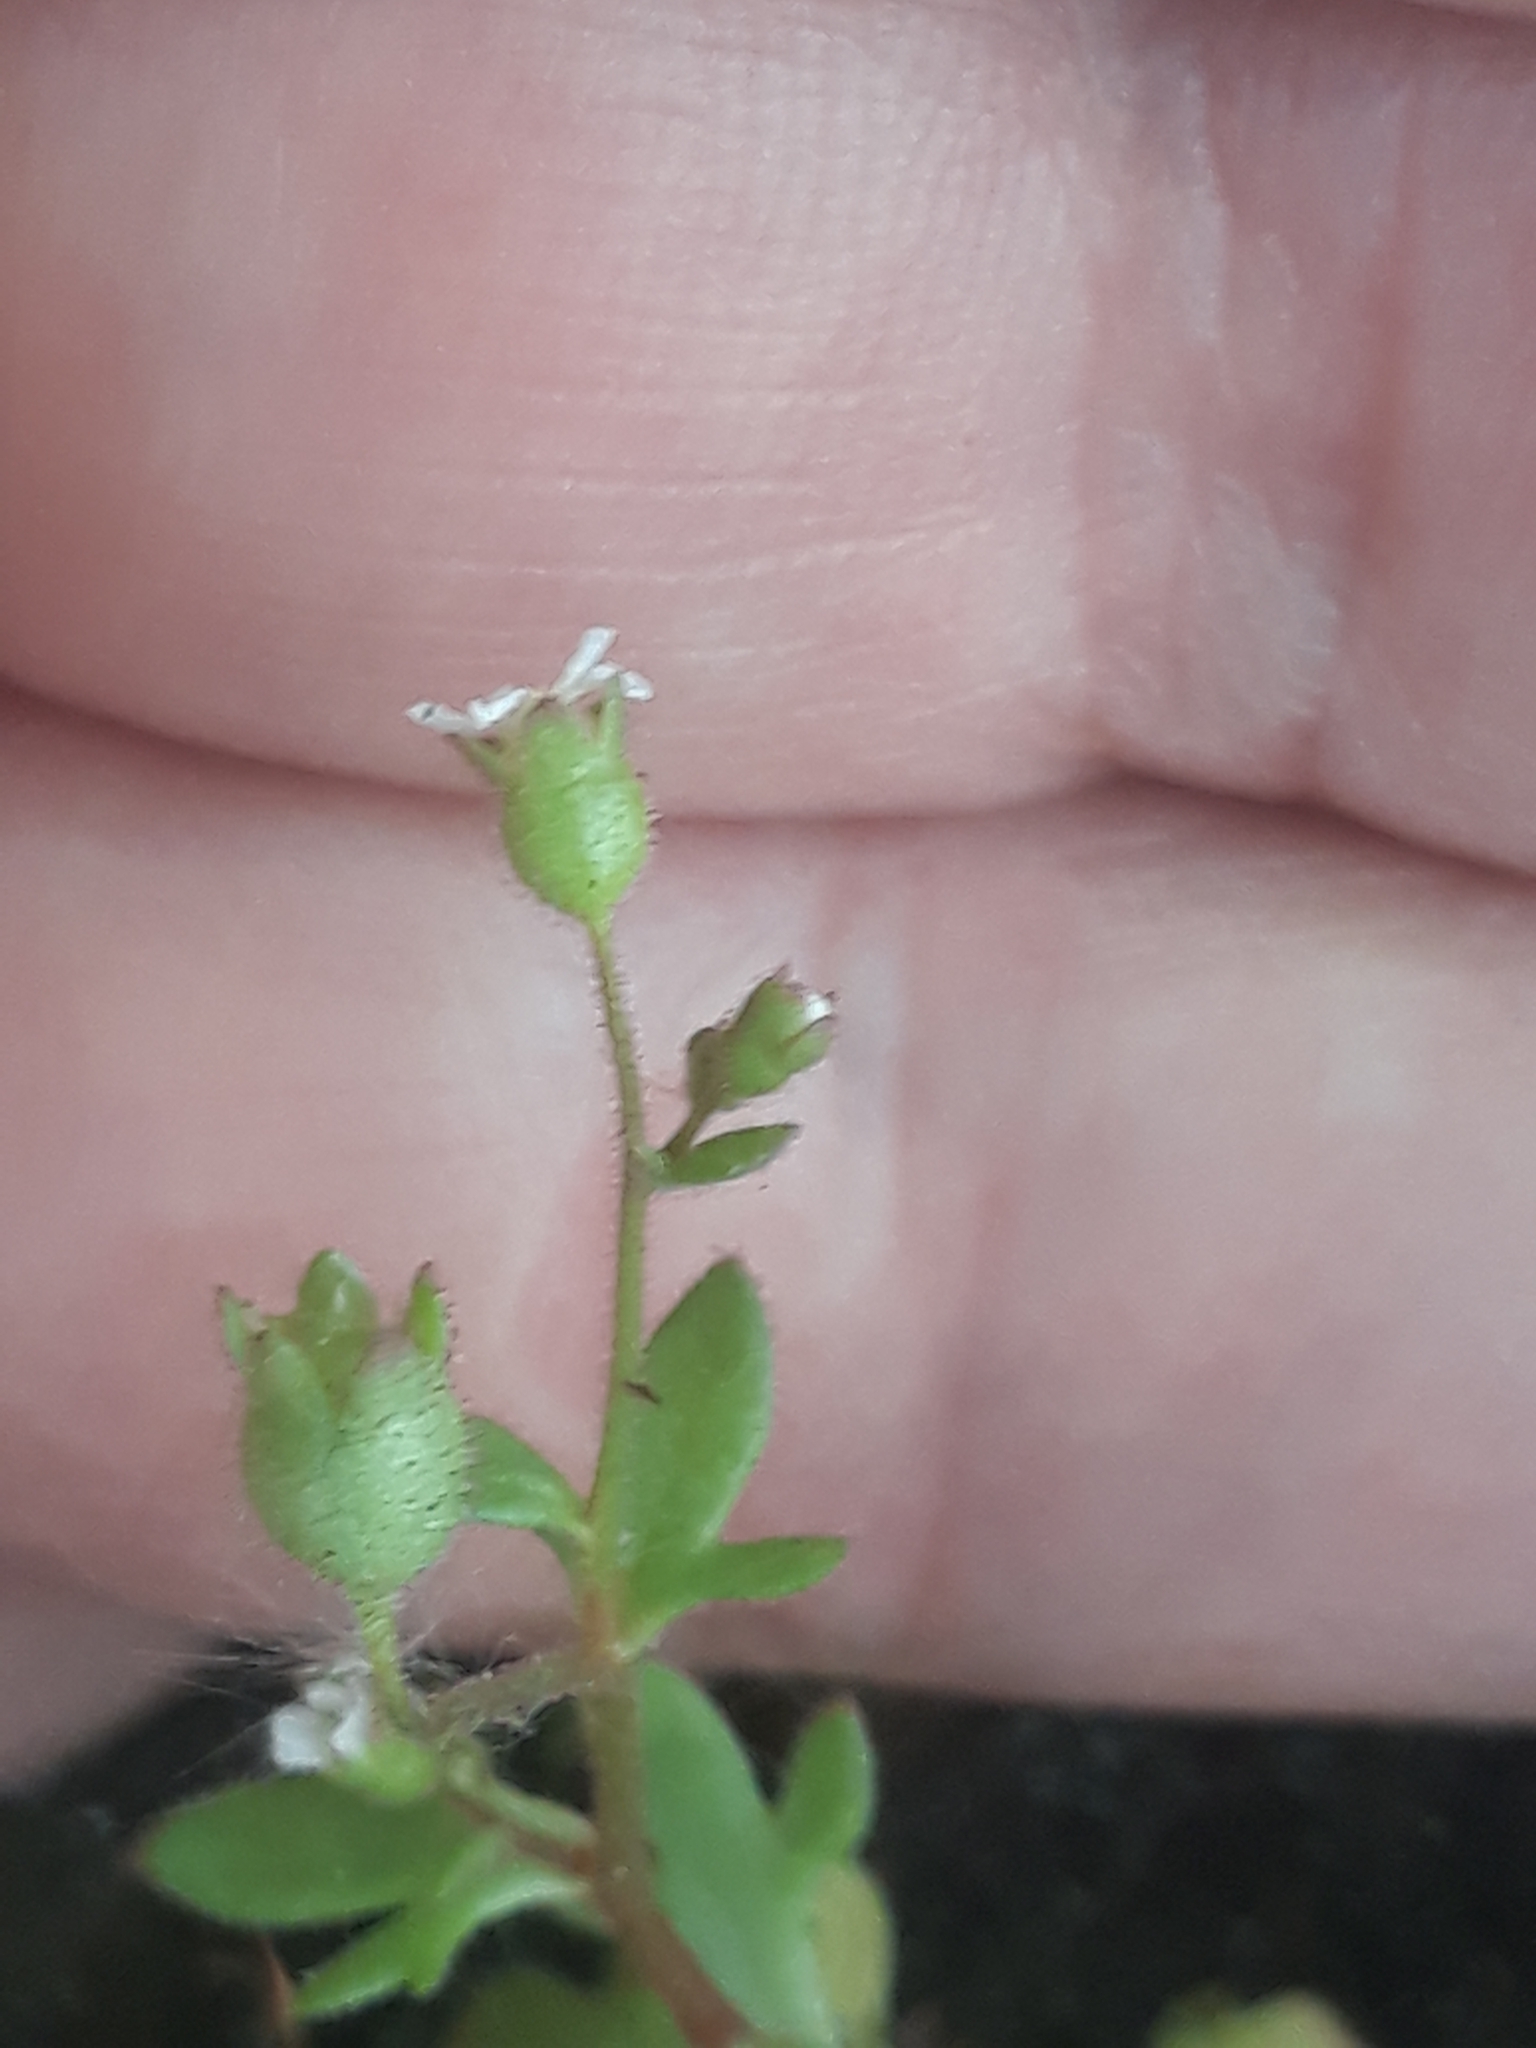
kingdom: Plantae
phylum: Tracheophyta
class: Magnoliopsida
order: Saxifragales
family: Saxifragaceae
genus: Saxifraga
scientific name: Saxifraga tridactylites
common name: Rue-leaved saxifrage
